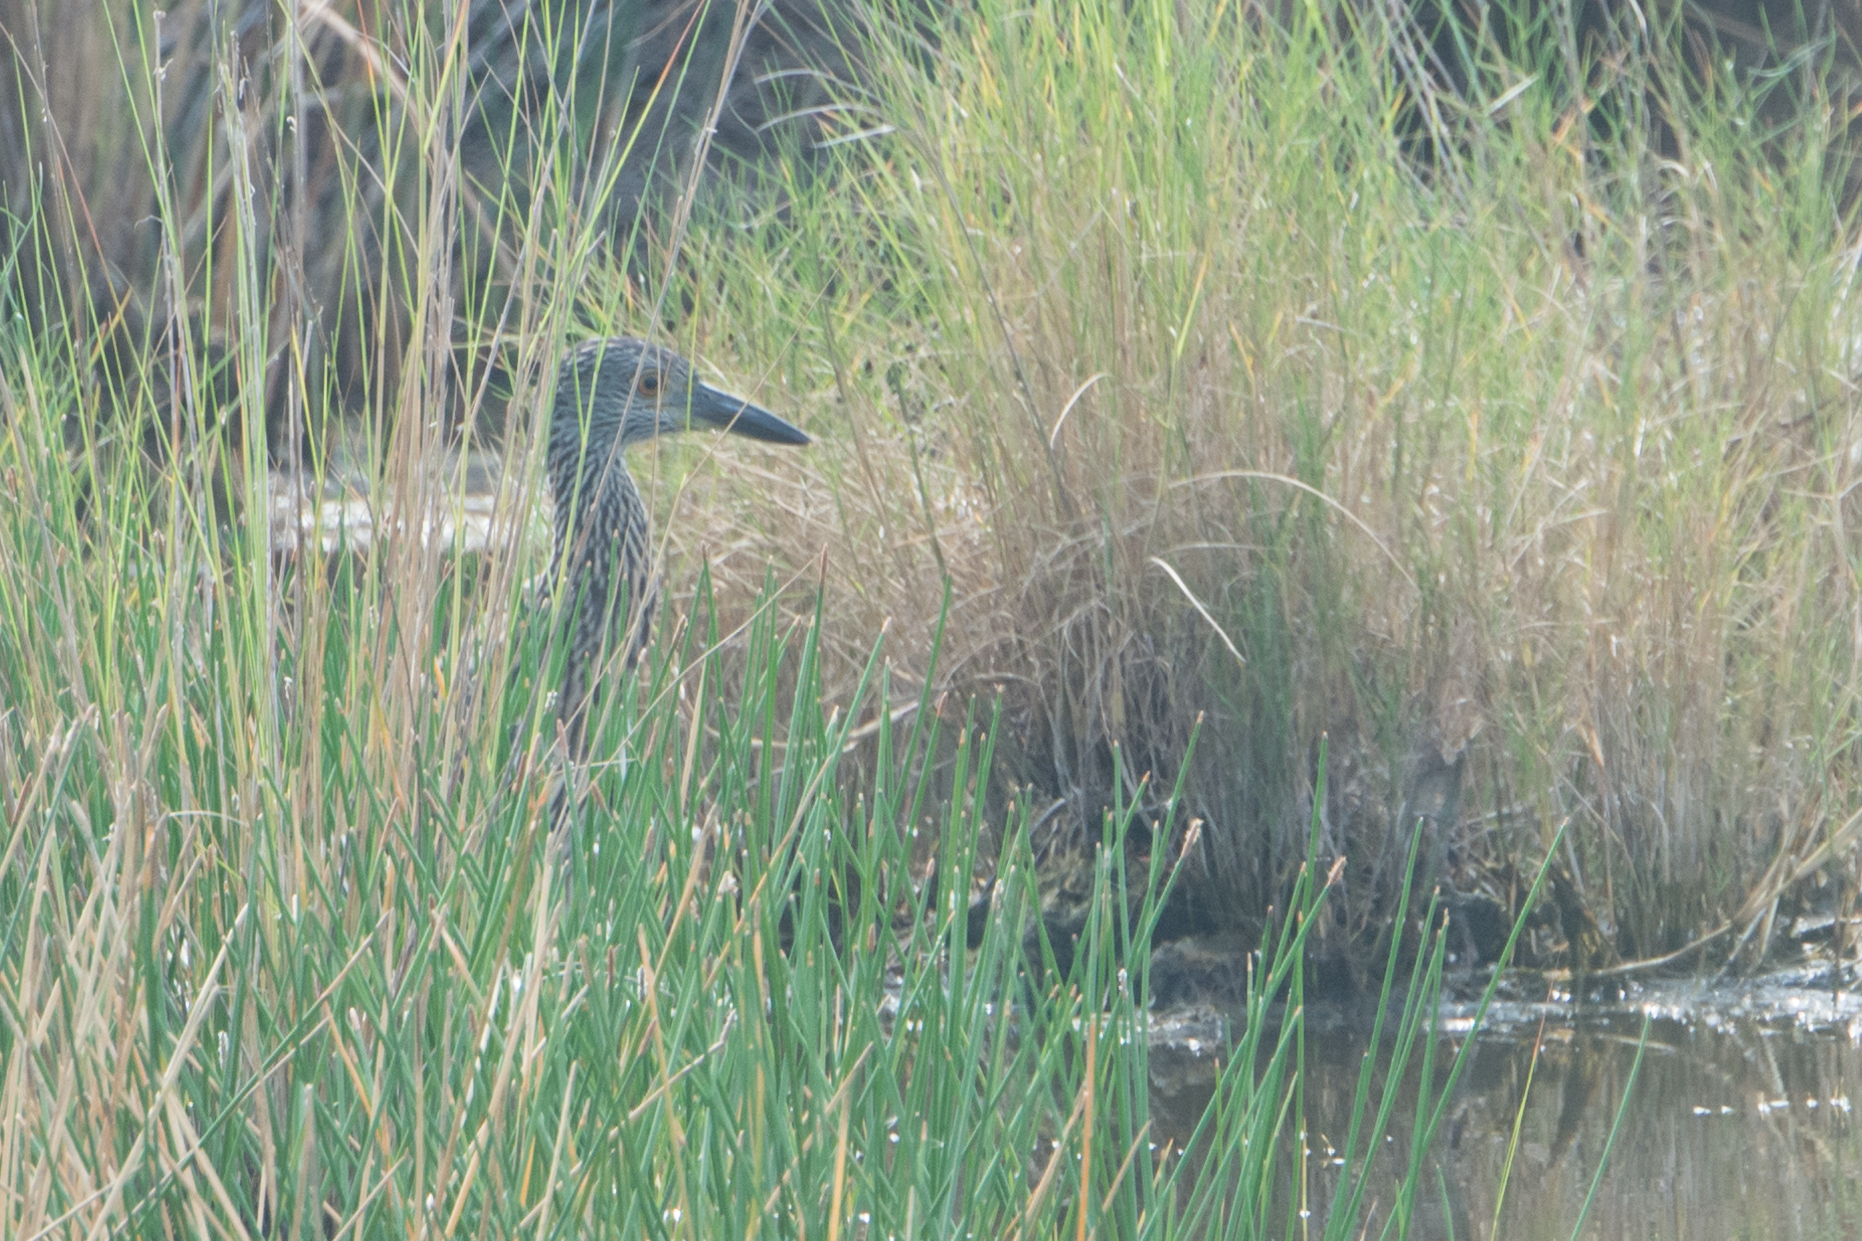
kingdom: Animalia
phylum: Chordata
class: Aves
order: Pelecaniformes
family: Ardeidae
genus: Nyctanassa
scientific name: Nyctanassa violacea
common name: Yellow-crowned night heron
